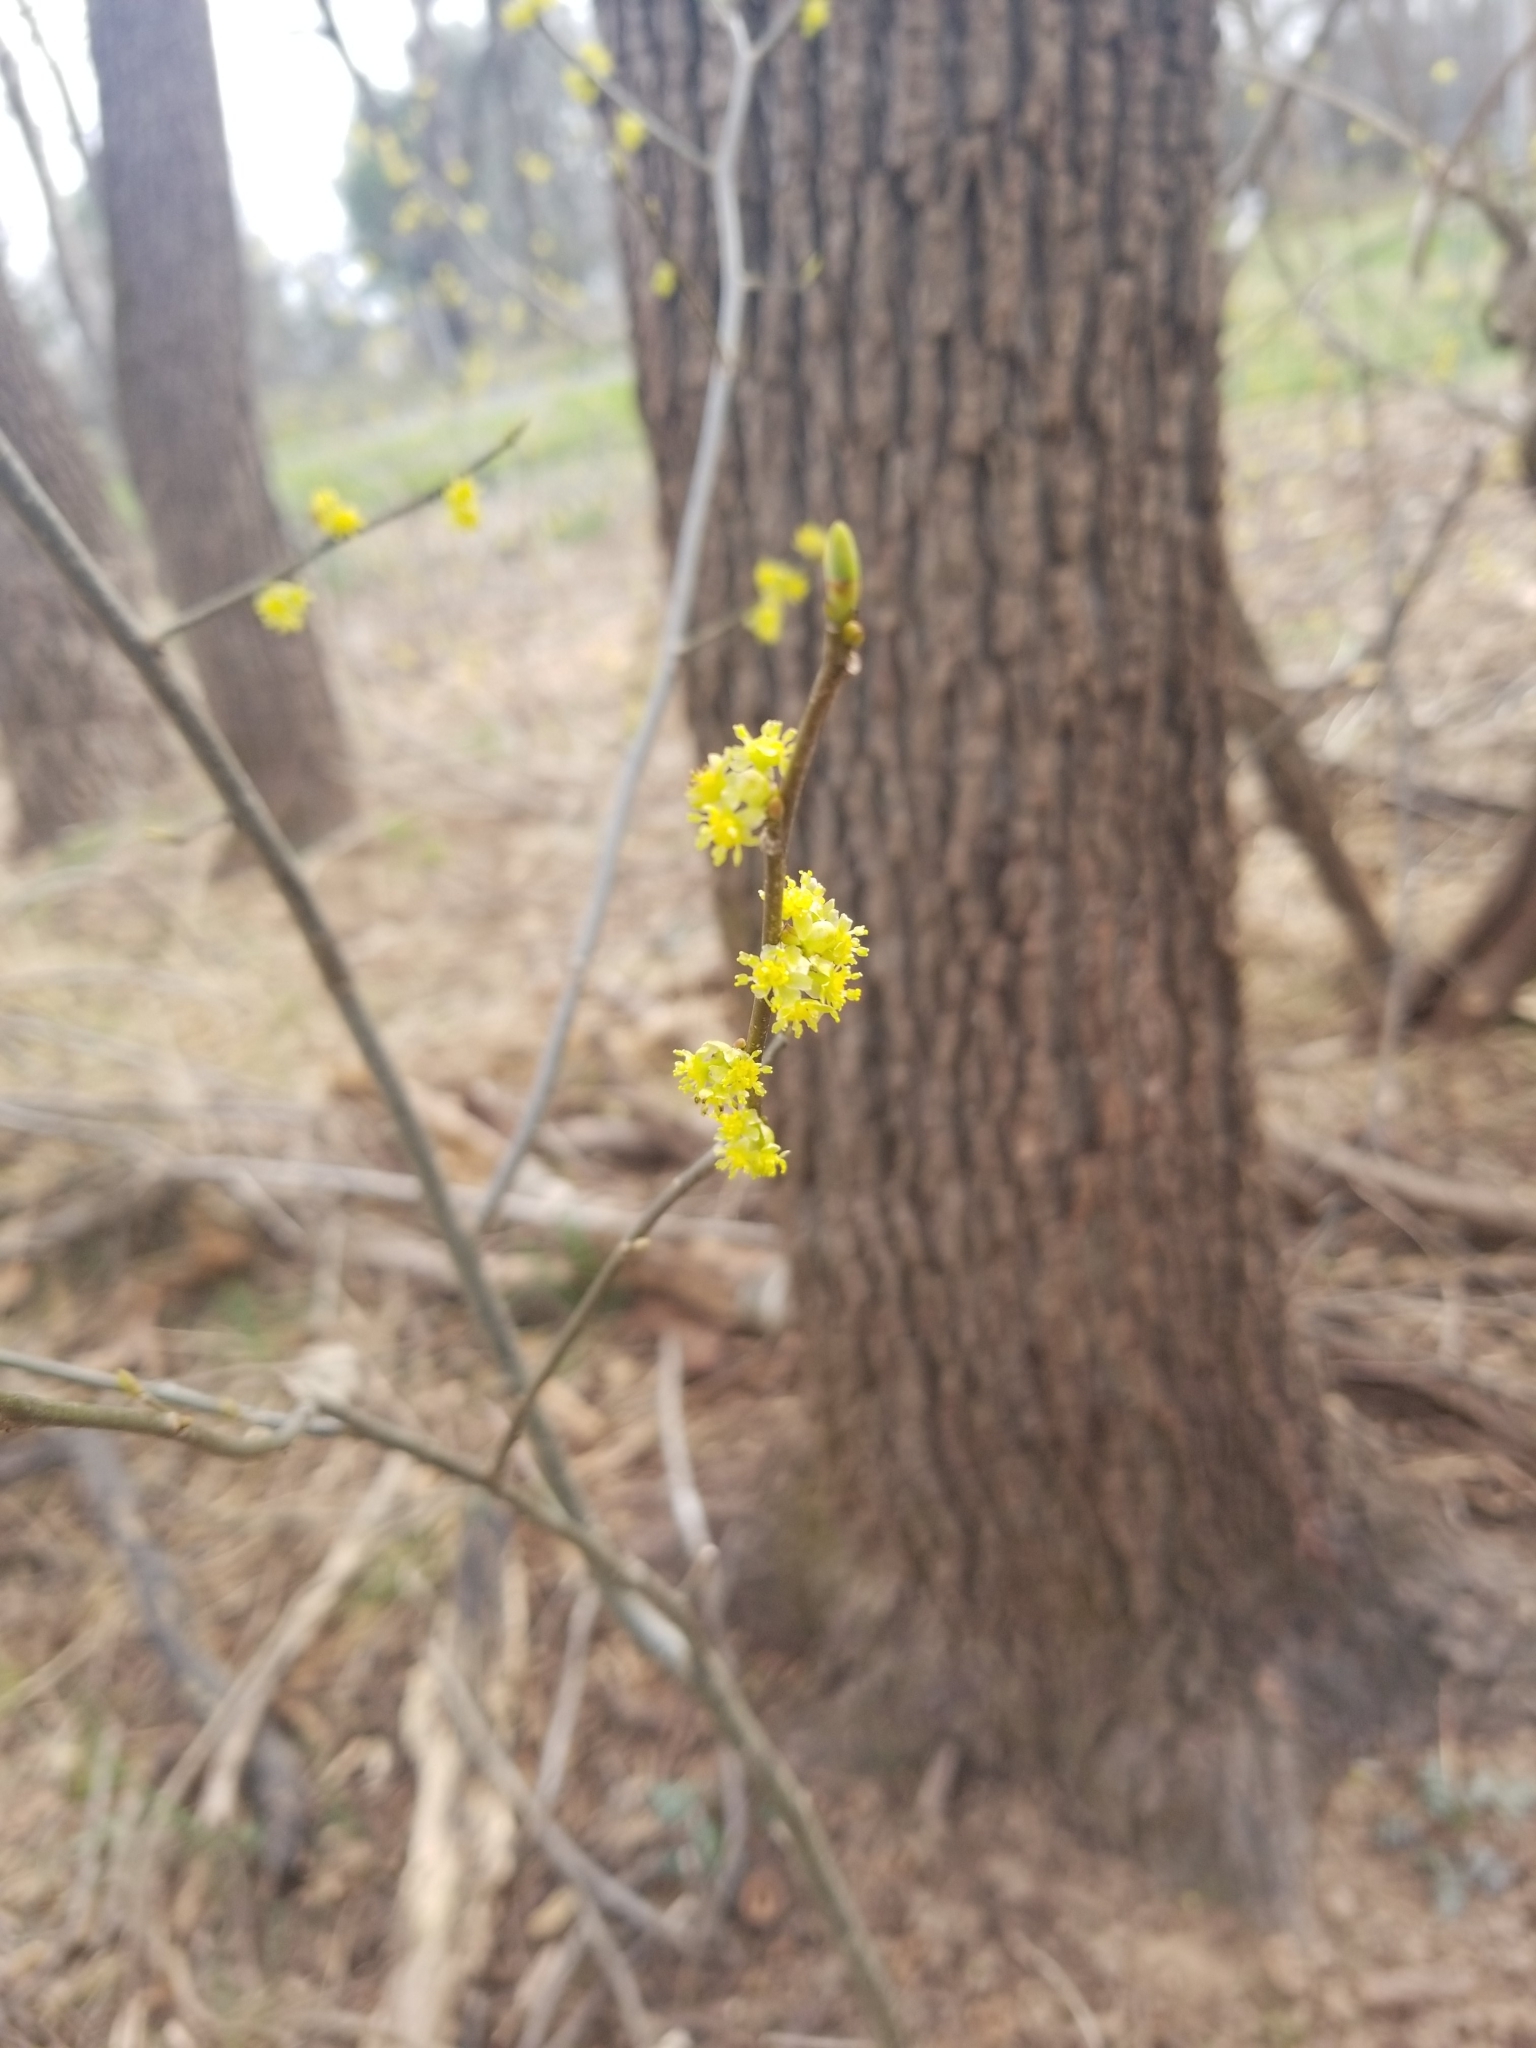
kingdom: Plantae
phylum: Tracheophyta
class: Magnoliopsida
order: Laurales
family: Lauraceae
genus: Lindera
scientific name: Lindera benzoin
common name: Spicebush
